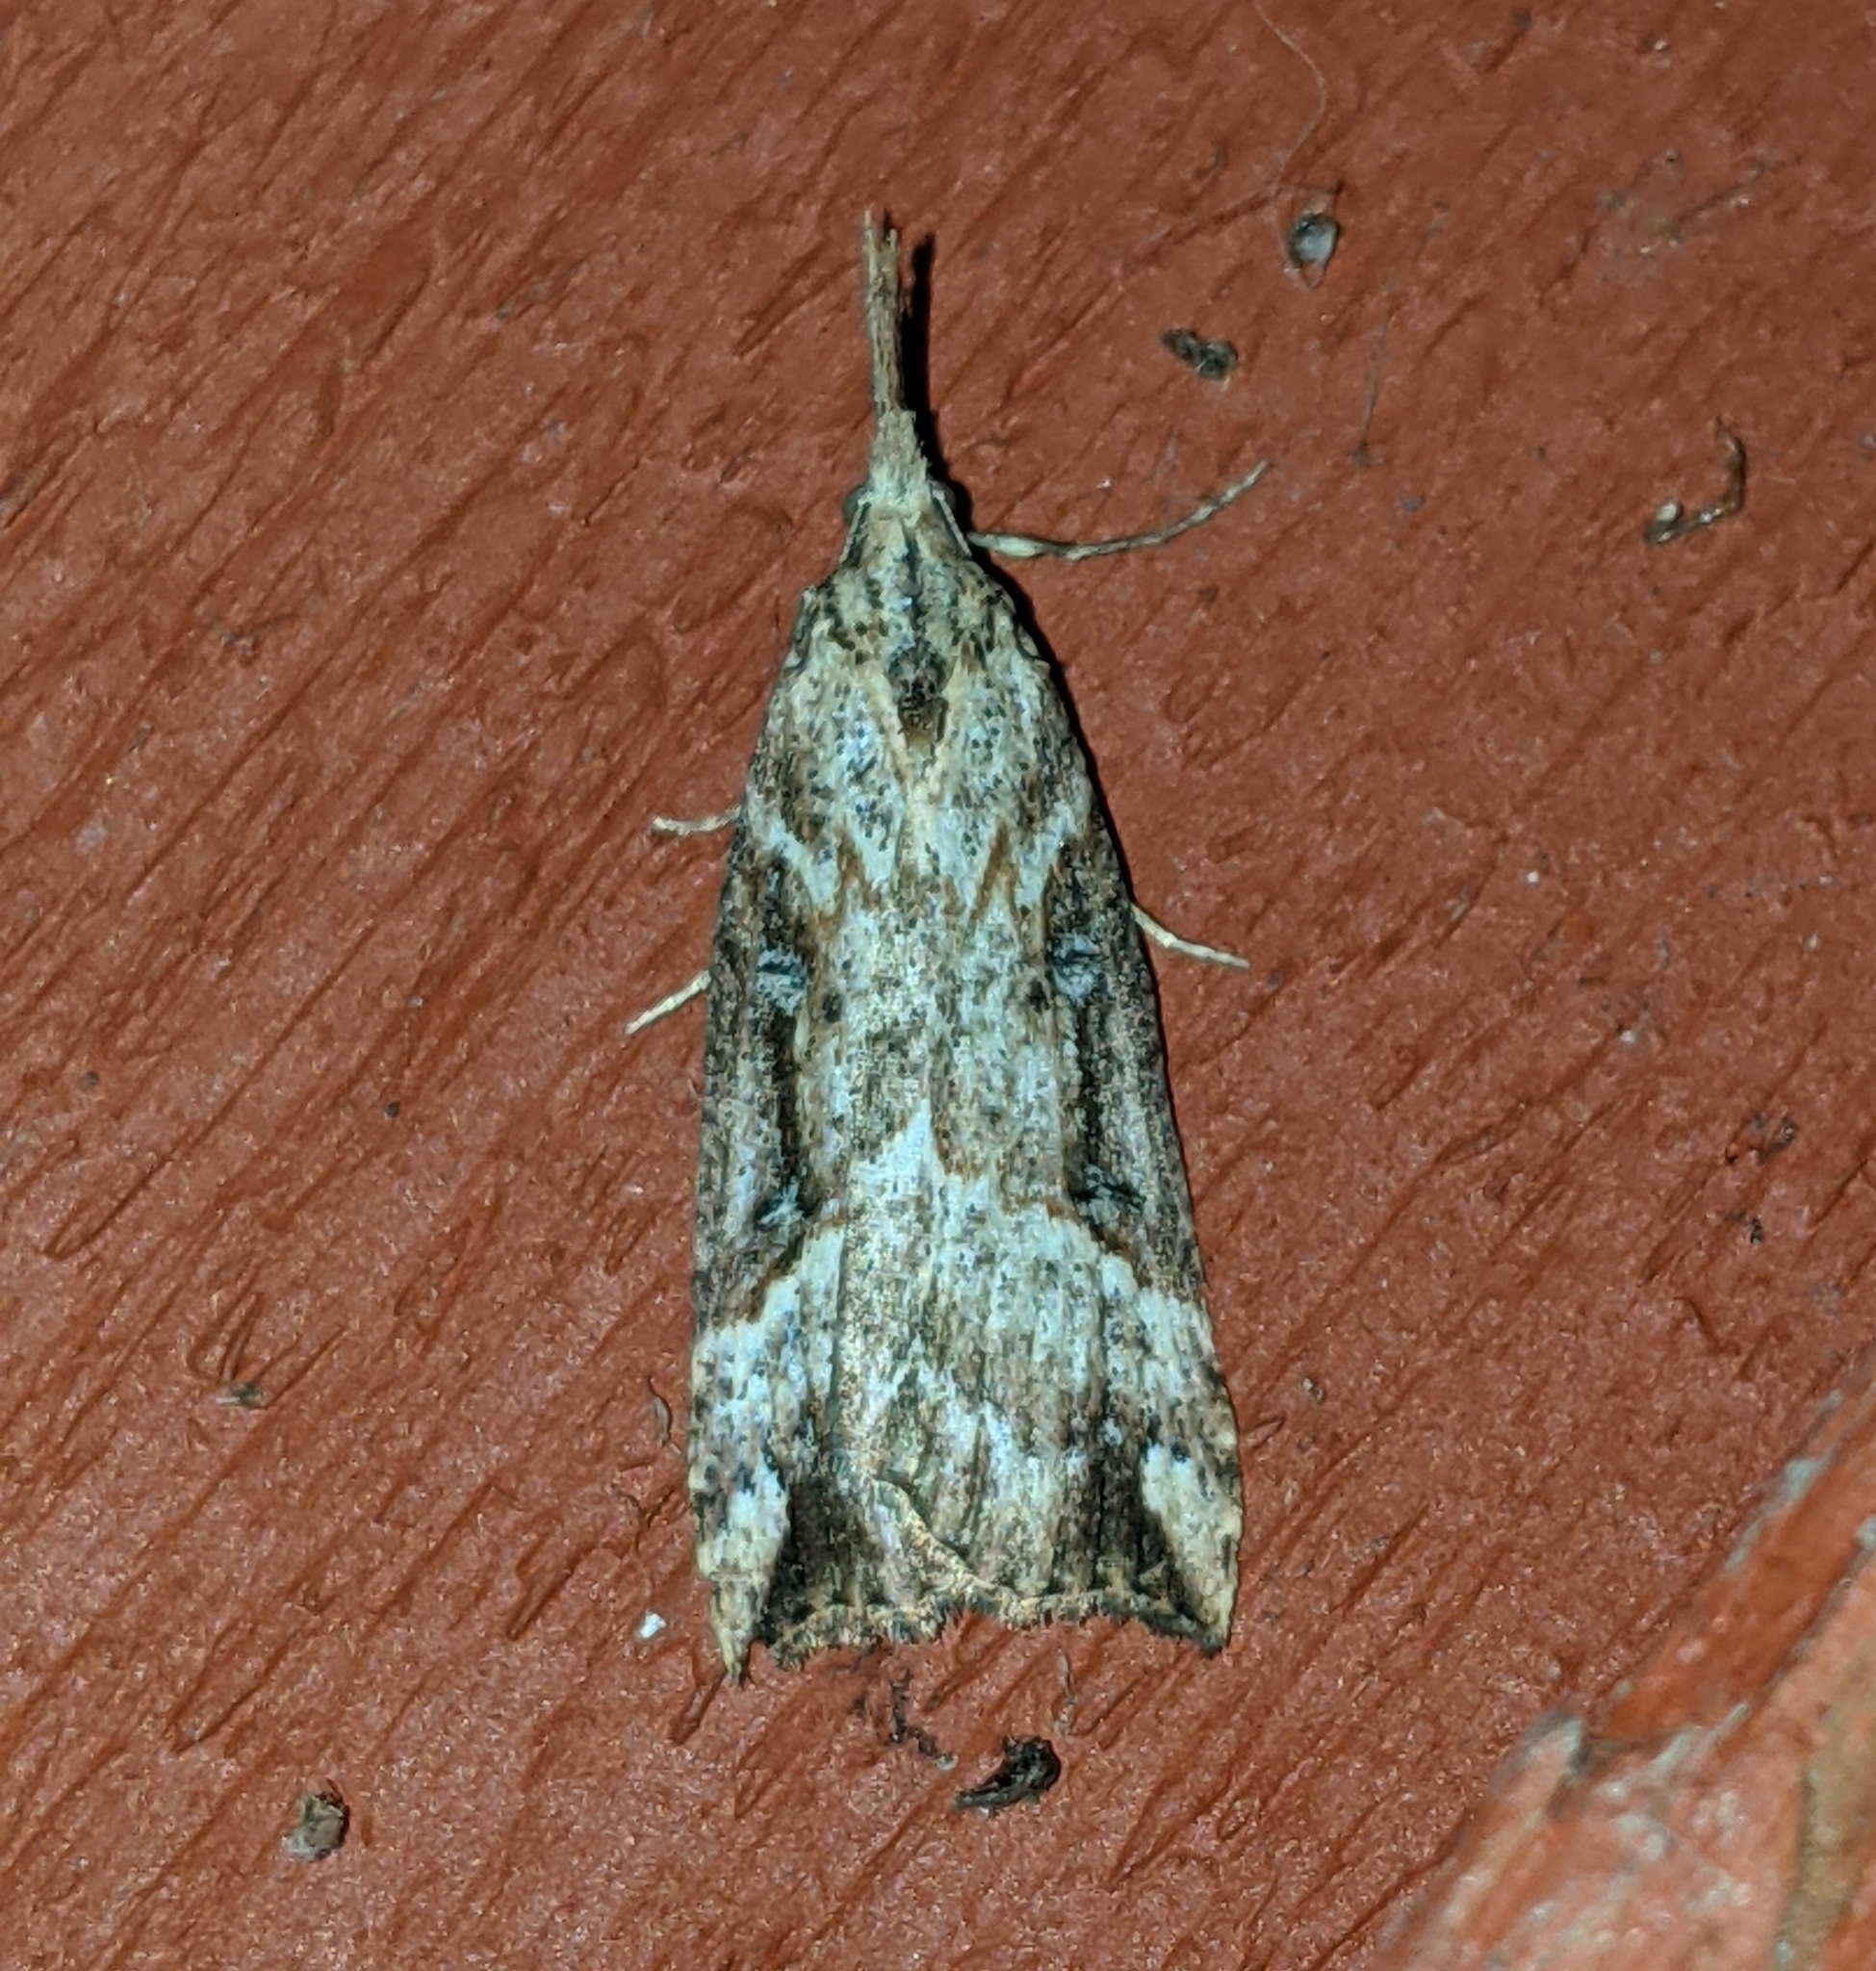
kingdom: Animalia
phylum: Arthropoda
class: Insecta
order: Lepidoptera
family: Erebidae
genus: Hypena
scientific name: Hypena californica
